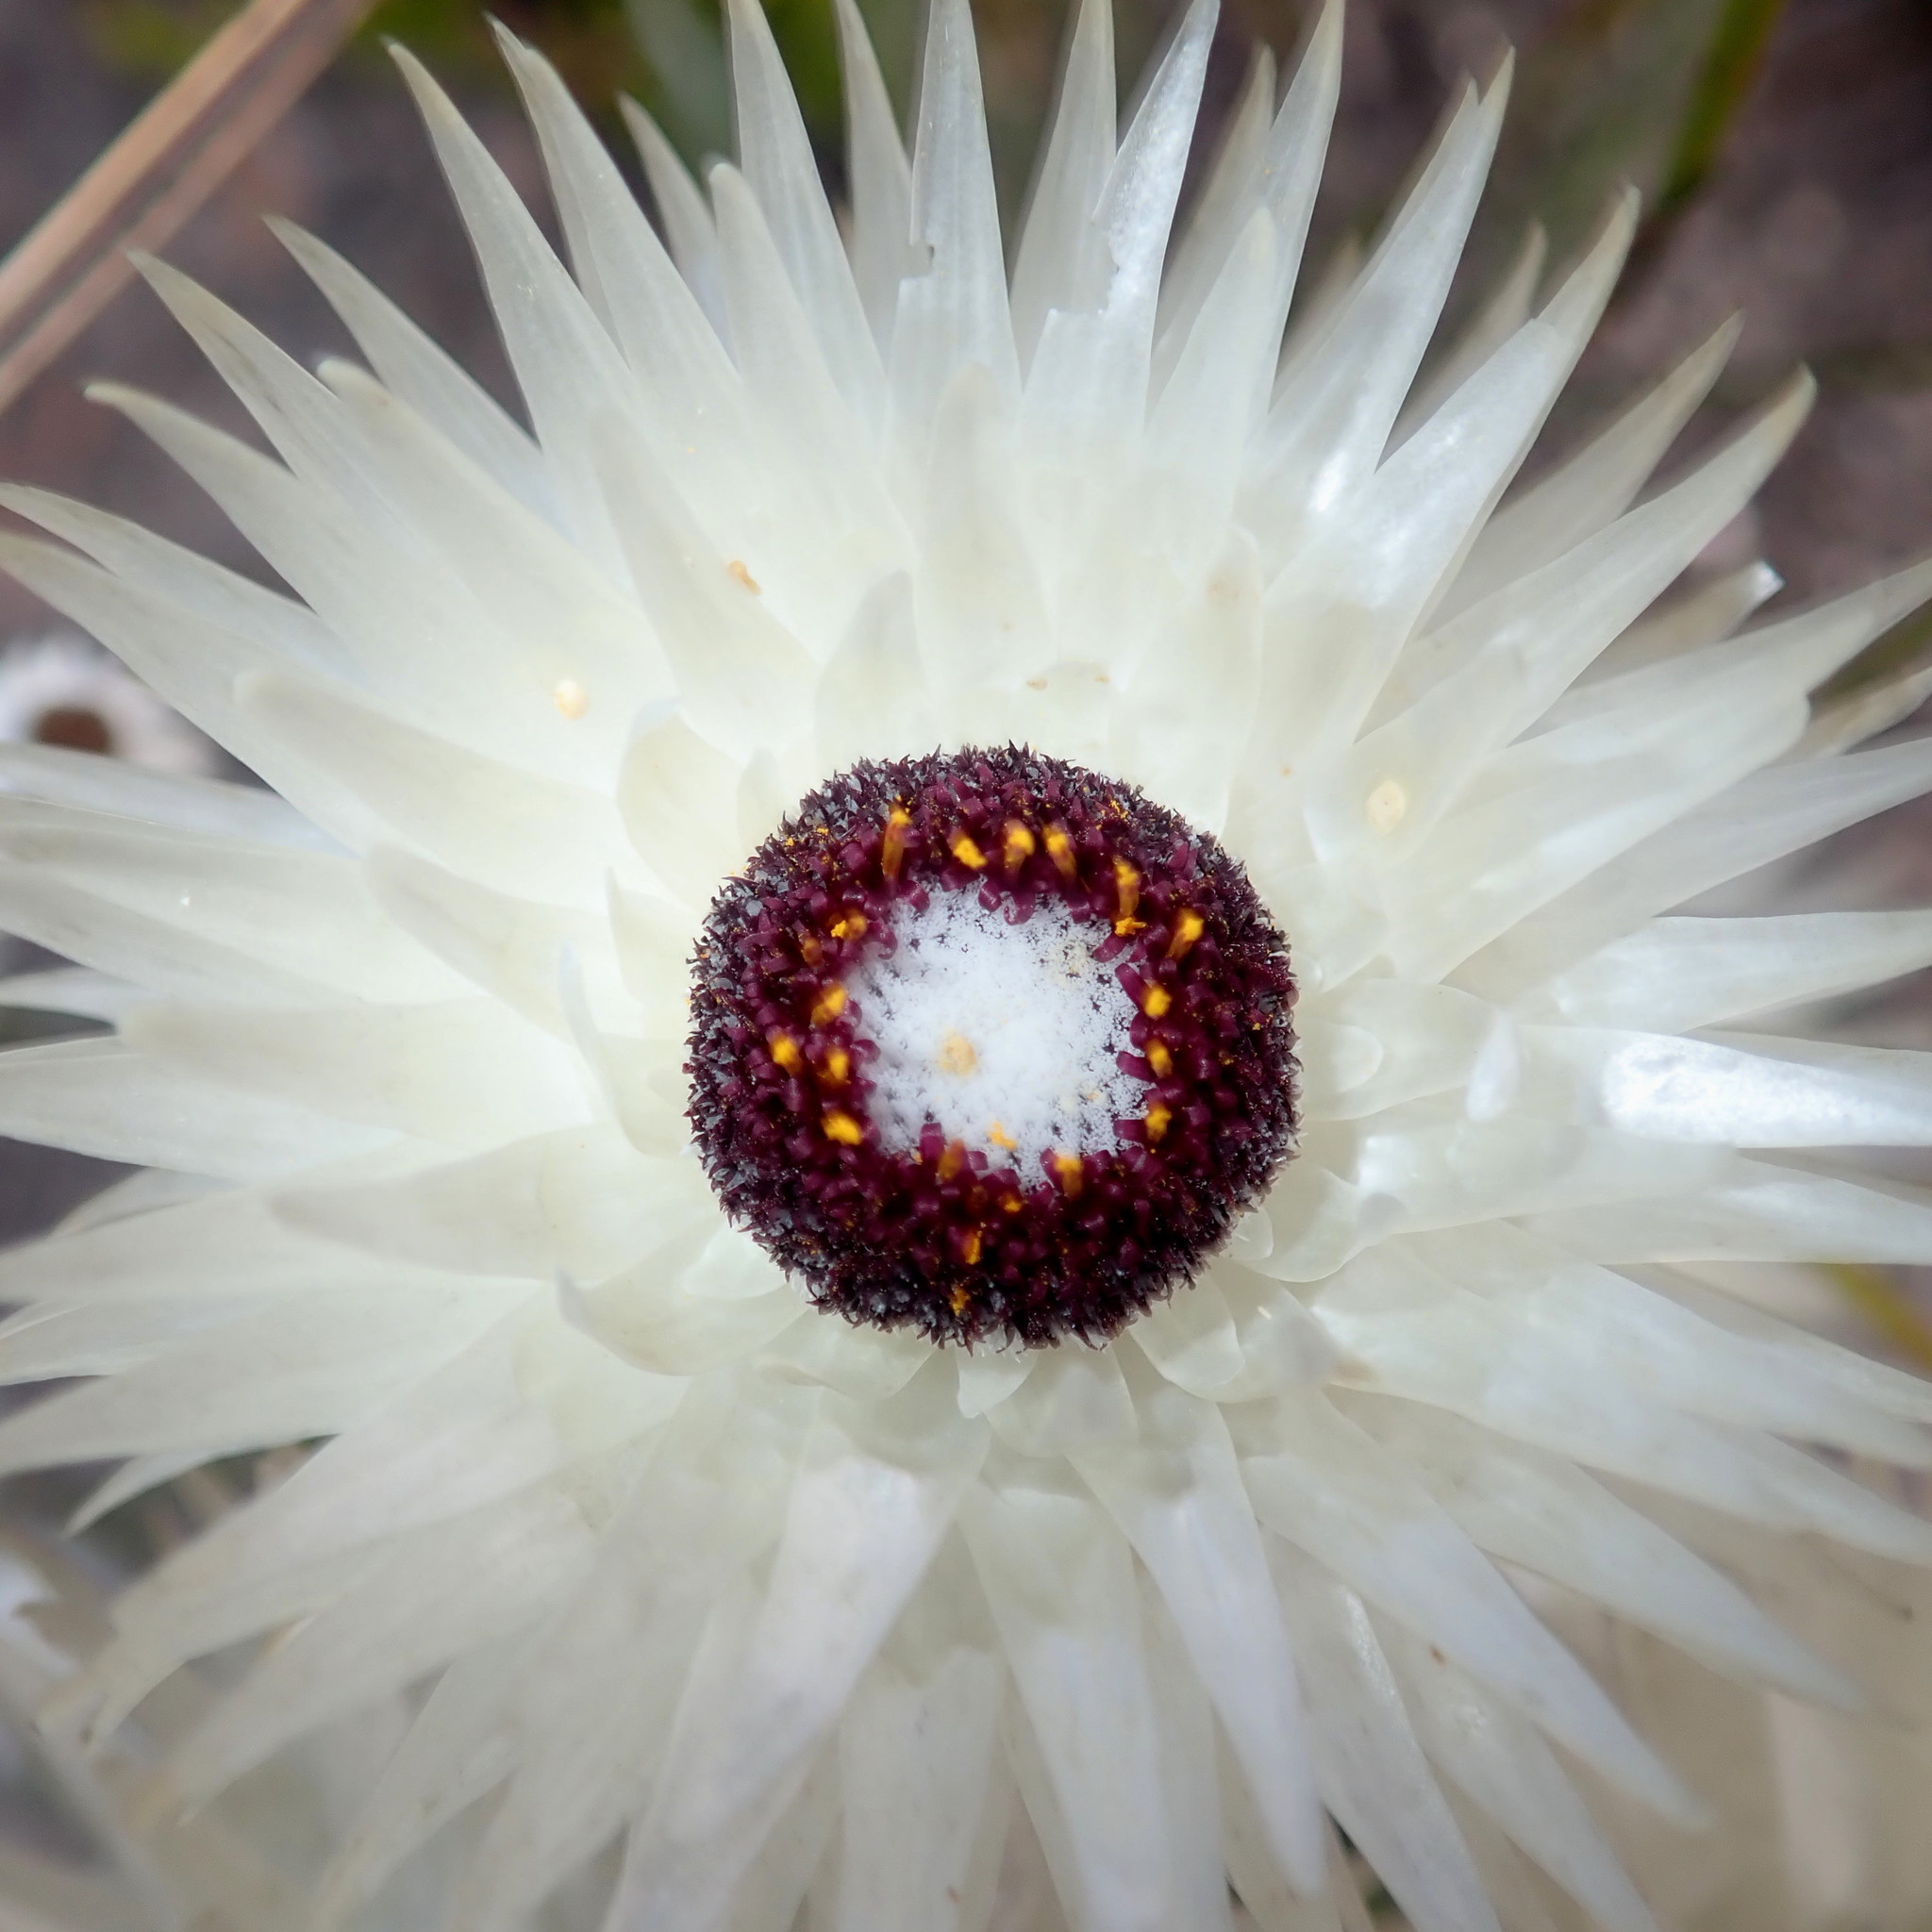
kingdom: Plantae
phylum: Tracheophyta
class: Magnoliopsida
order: Asterales
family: Asteraceae
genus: Syncarpha
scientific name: Syncarpha vestita
